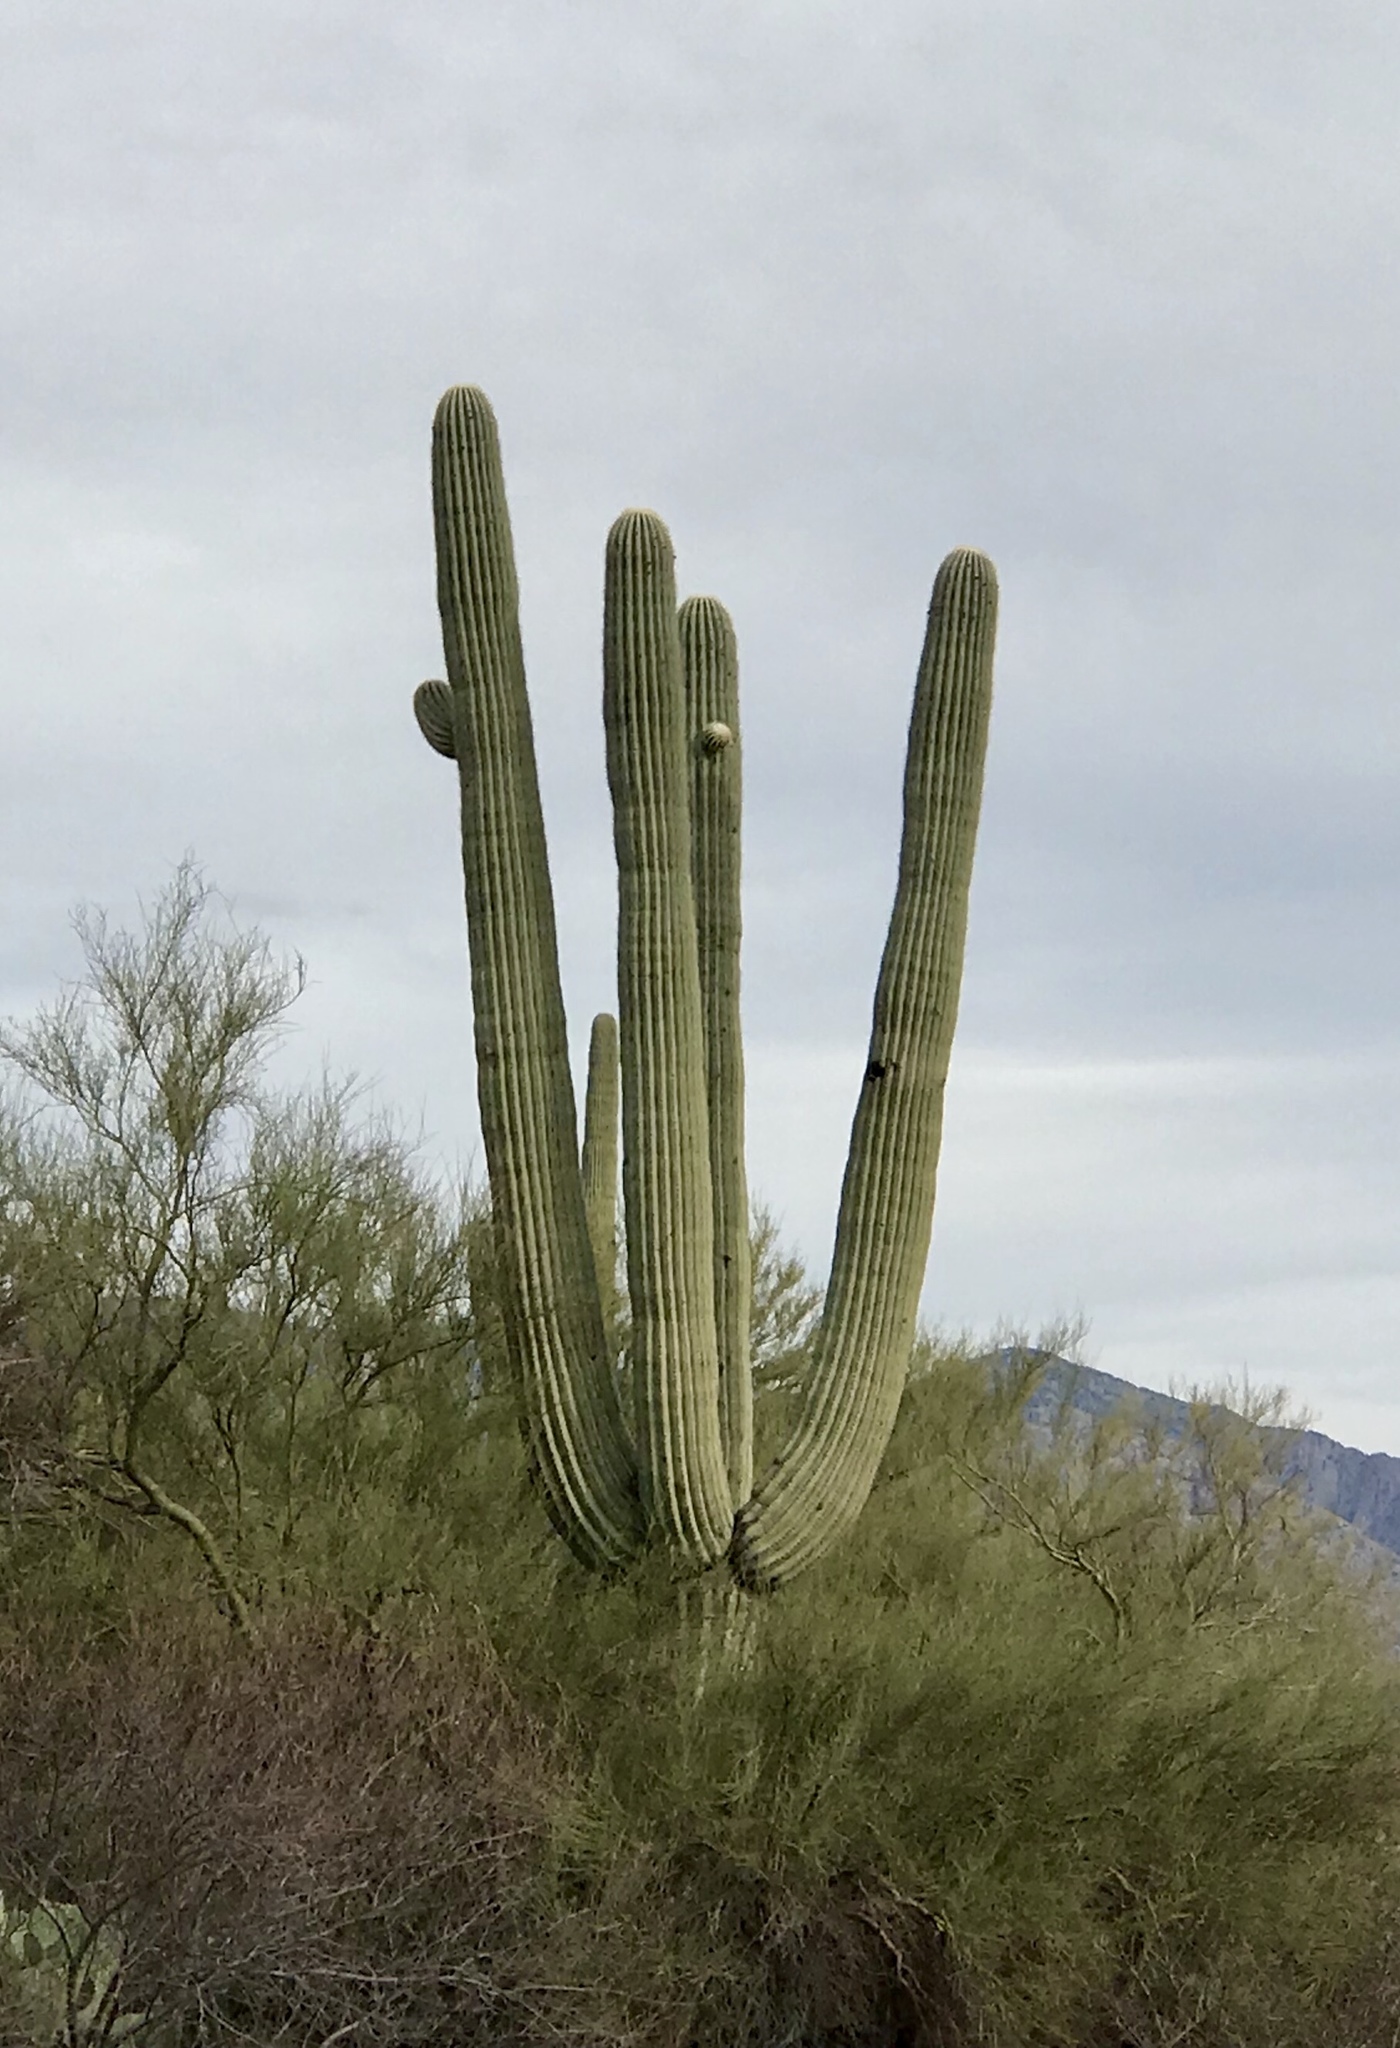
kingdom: Plantae
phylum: Tracheophyta
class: Magnoliopsida
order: Caryophyllales
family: Cactaceae
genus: Carnegiea
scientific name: Carnegiea gigantea
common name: Saguaro
